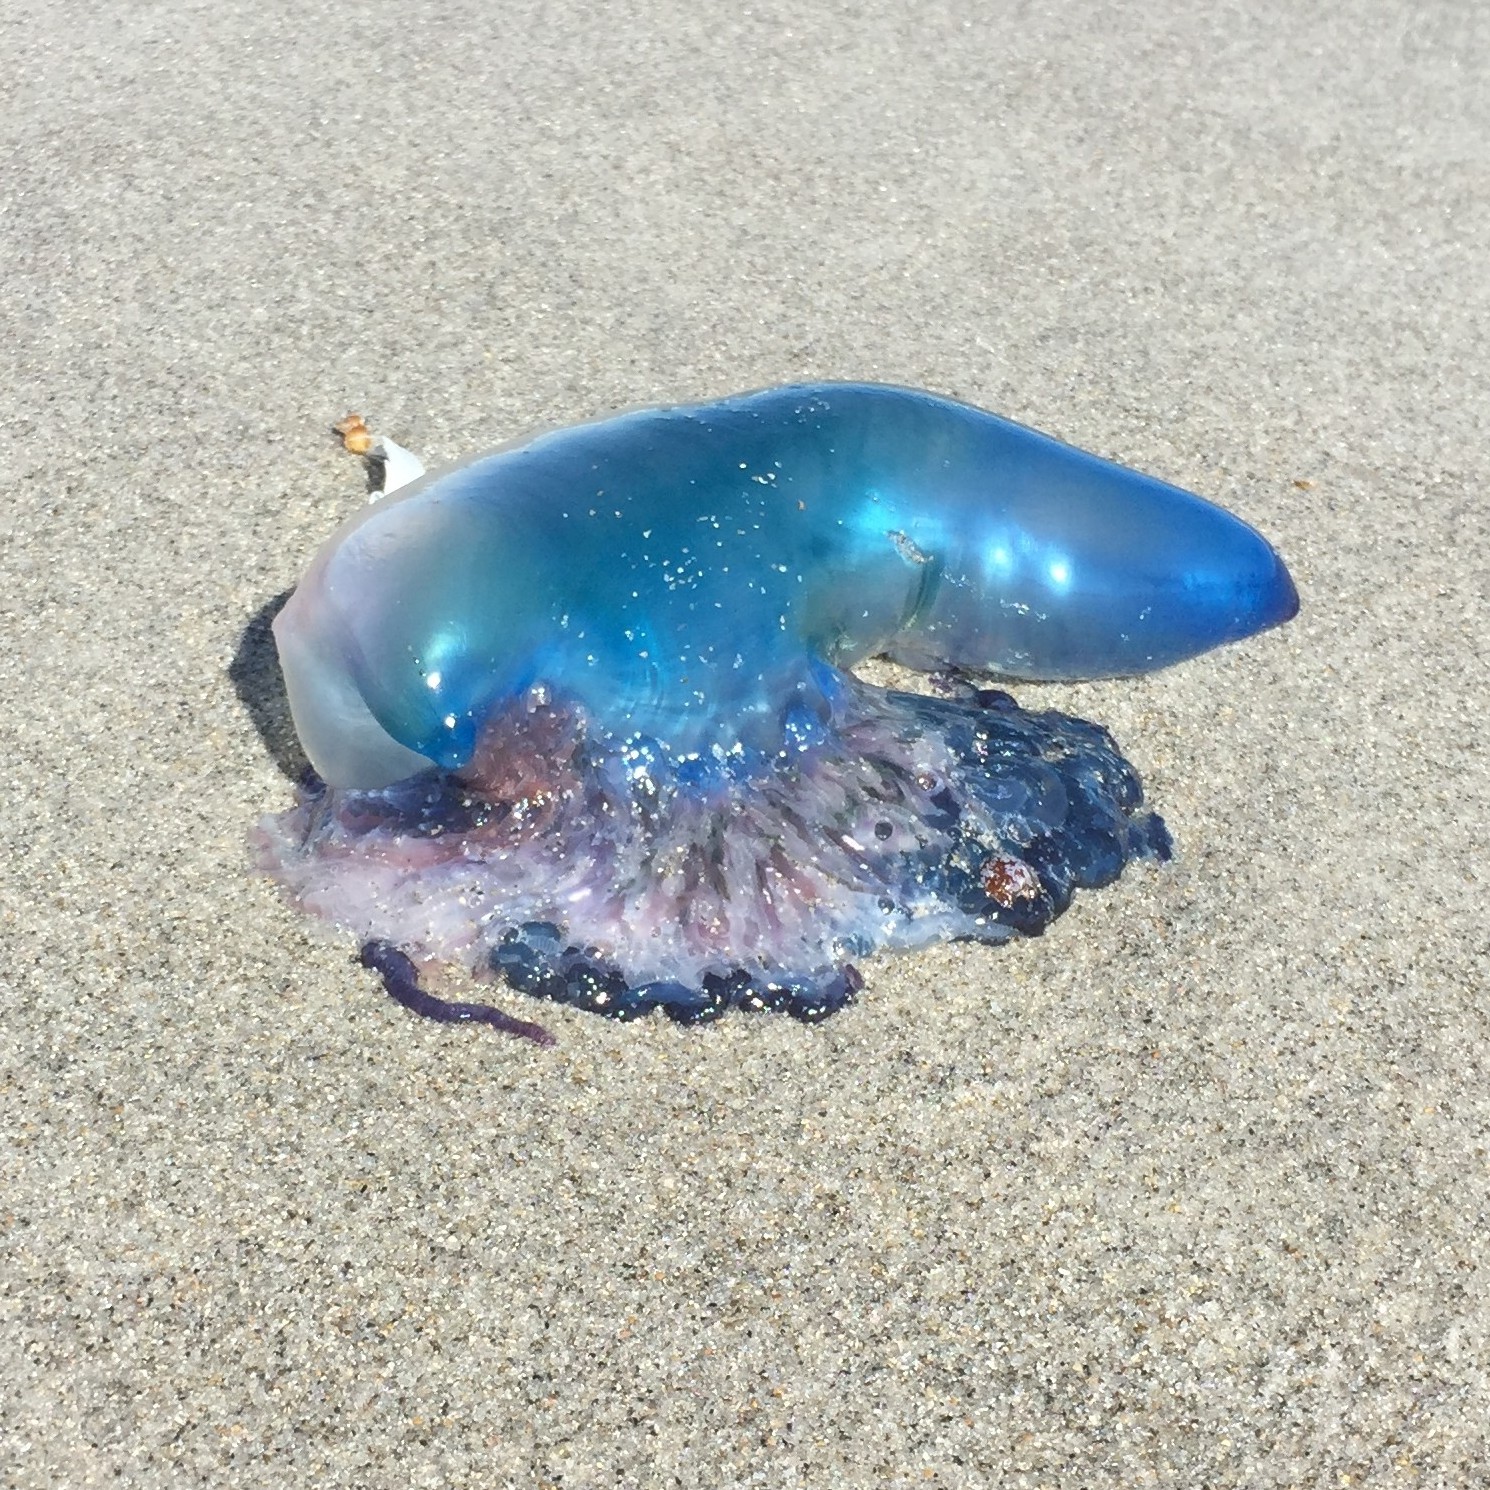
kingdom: Animalia
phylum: Cnidaria
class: Hydrozoa
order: Siphonophorae
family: Physaliidae
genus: Physalia
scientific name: Physalia physalis
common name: Portuguese man-of-war
